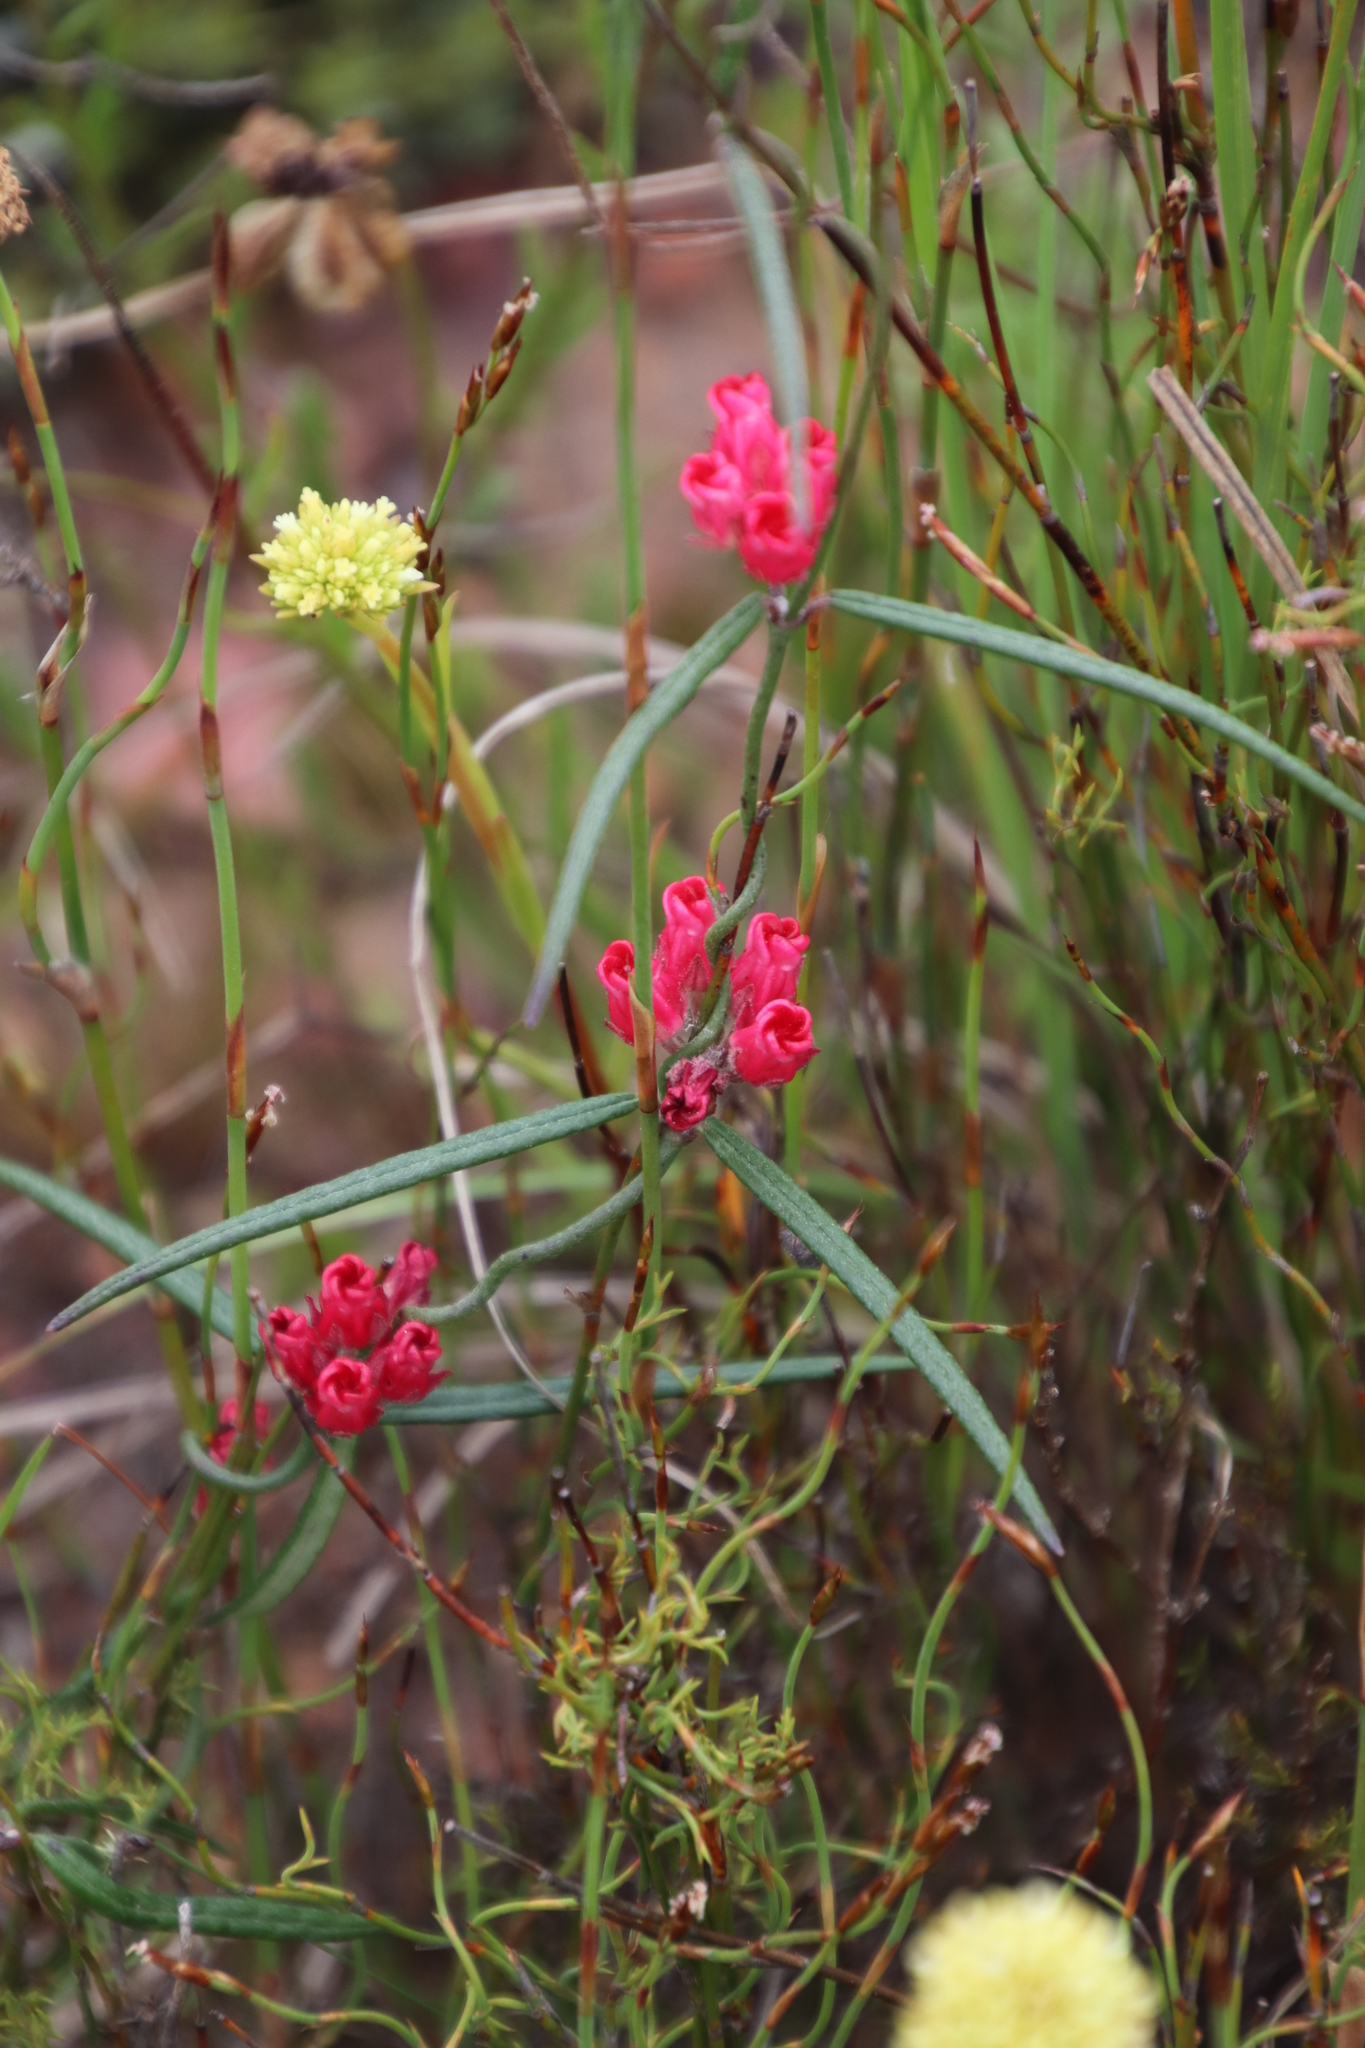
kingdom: Plantae
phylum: Tracheophyta
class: Magnoliopsida
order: Gentianales
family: Apocynaceae
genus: Microloma
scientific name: Microloma tenuifolium
